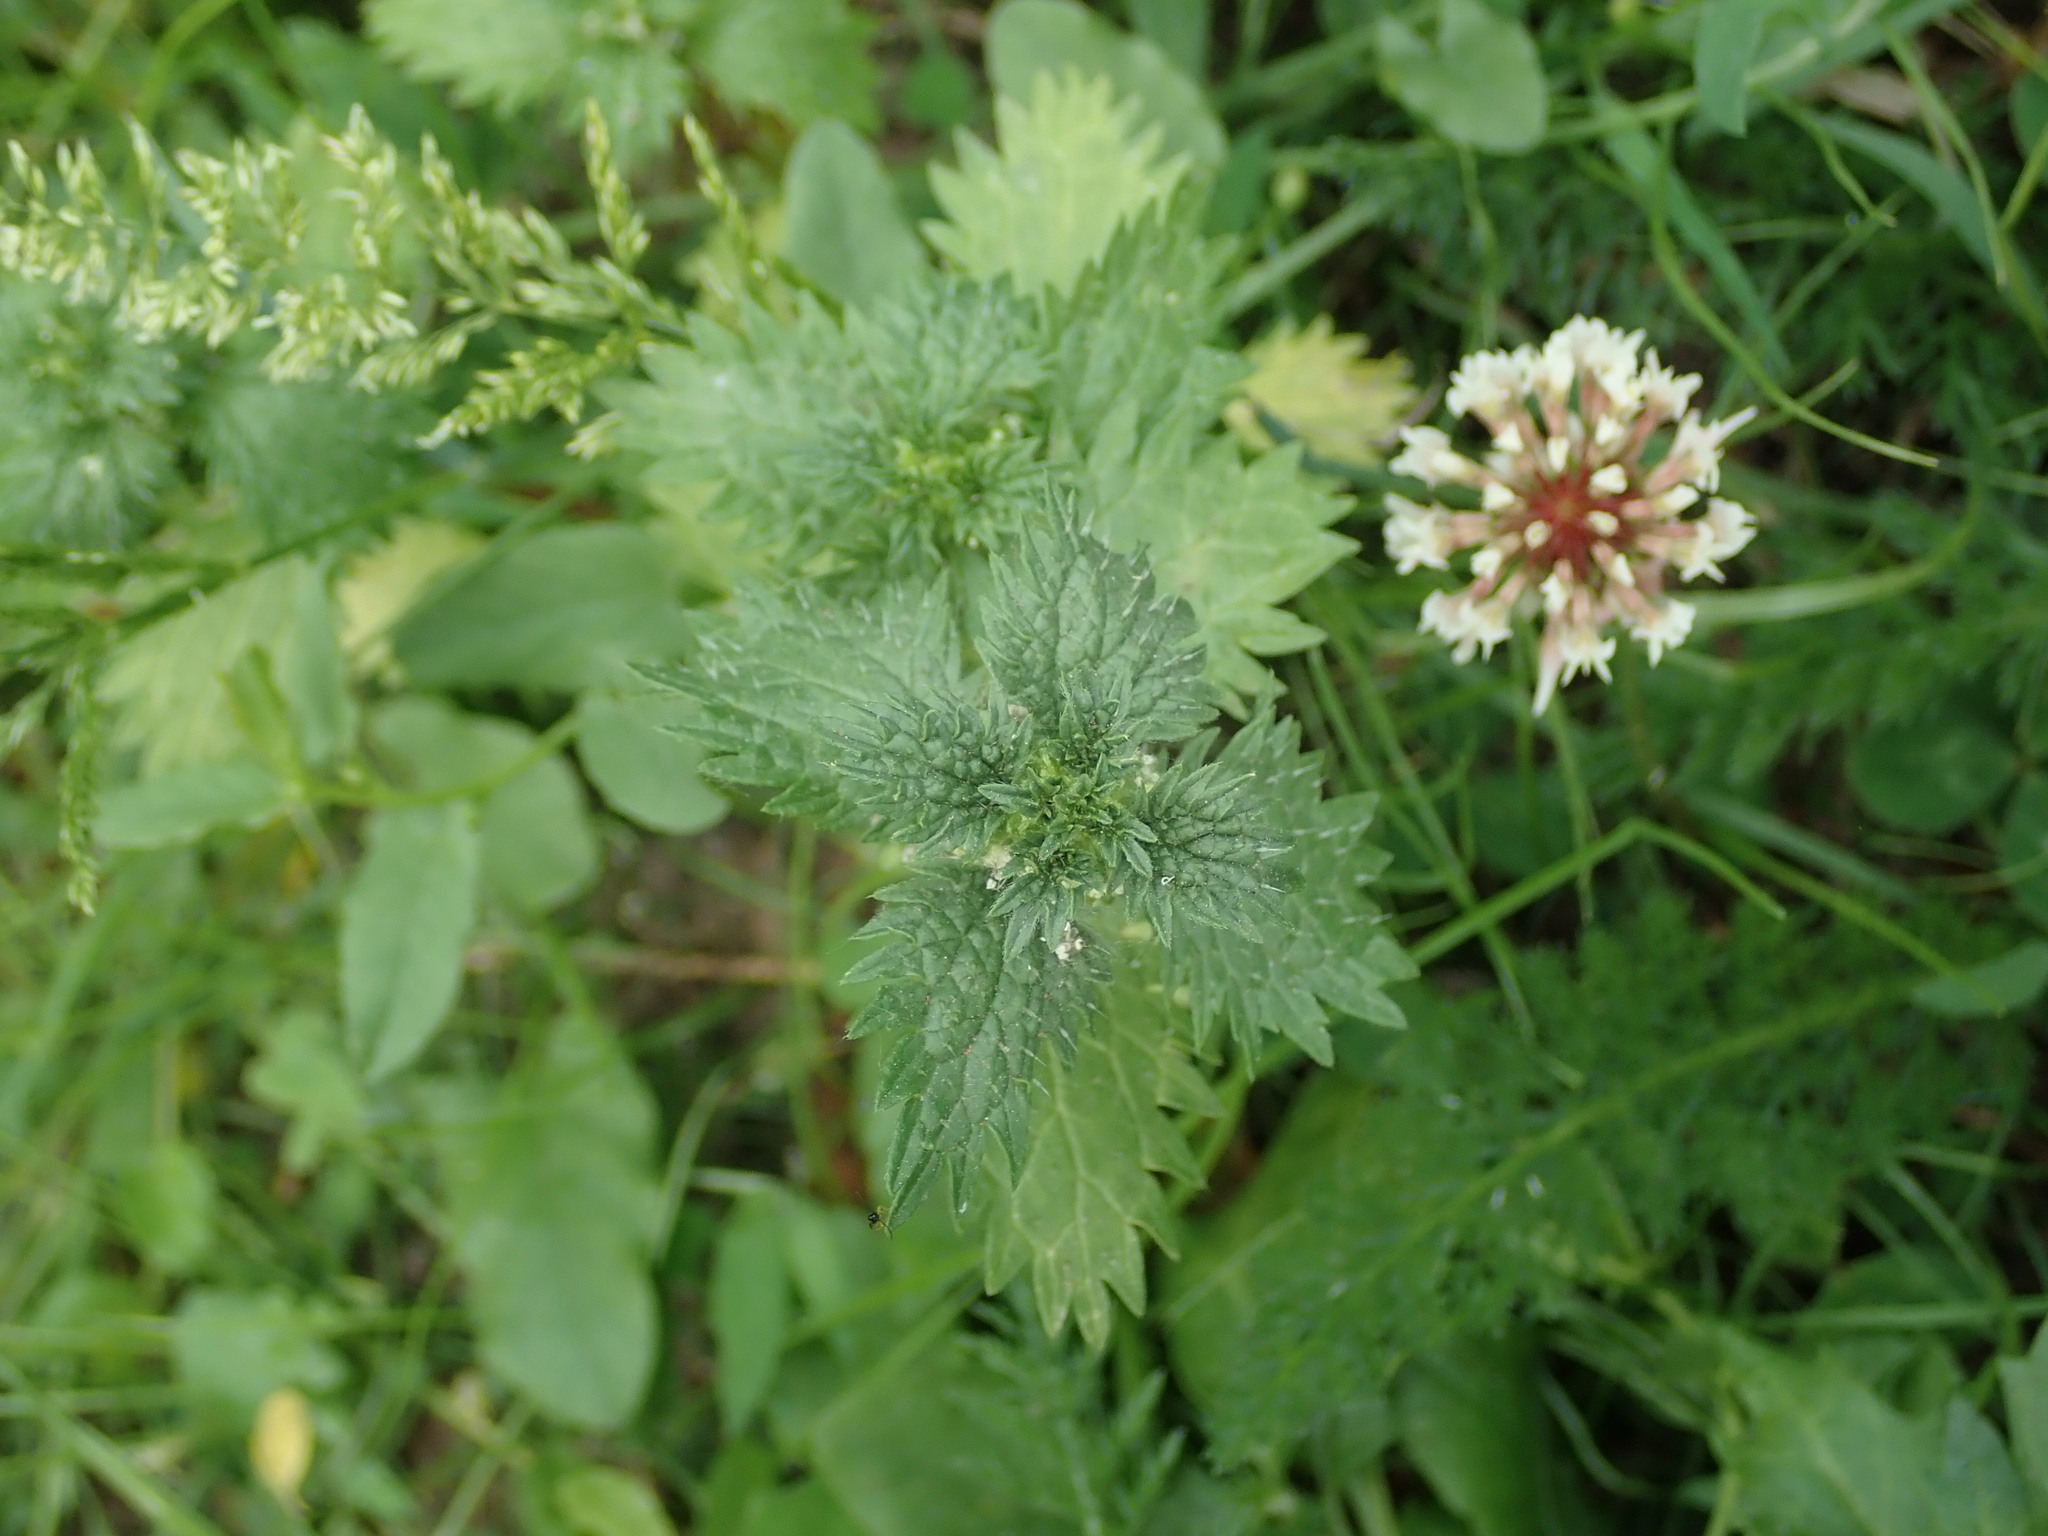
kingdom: Plantae
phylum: Tracheophyta
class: Magnoliopsida
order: Rosales
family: Urticaceae
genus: Urtica
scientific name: Urtica urens
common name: Dwarf nettle
